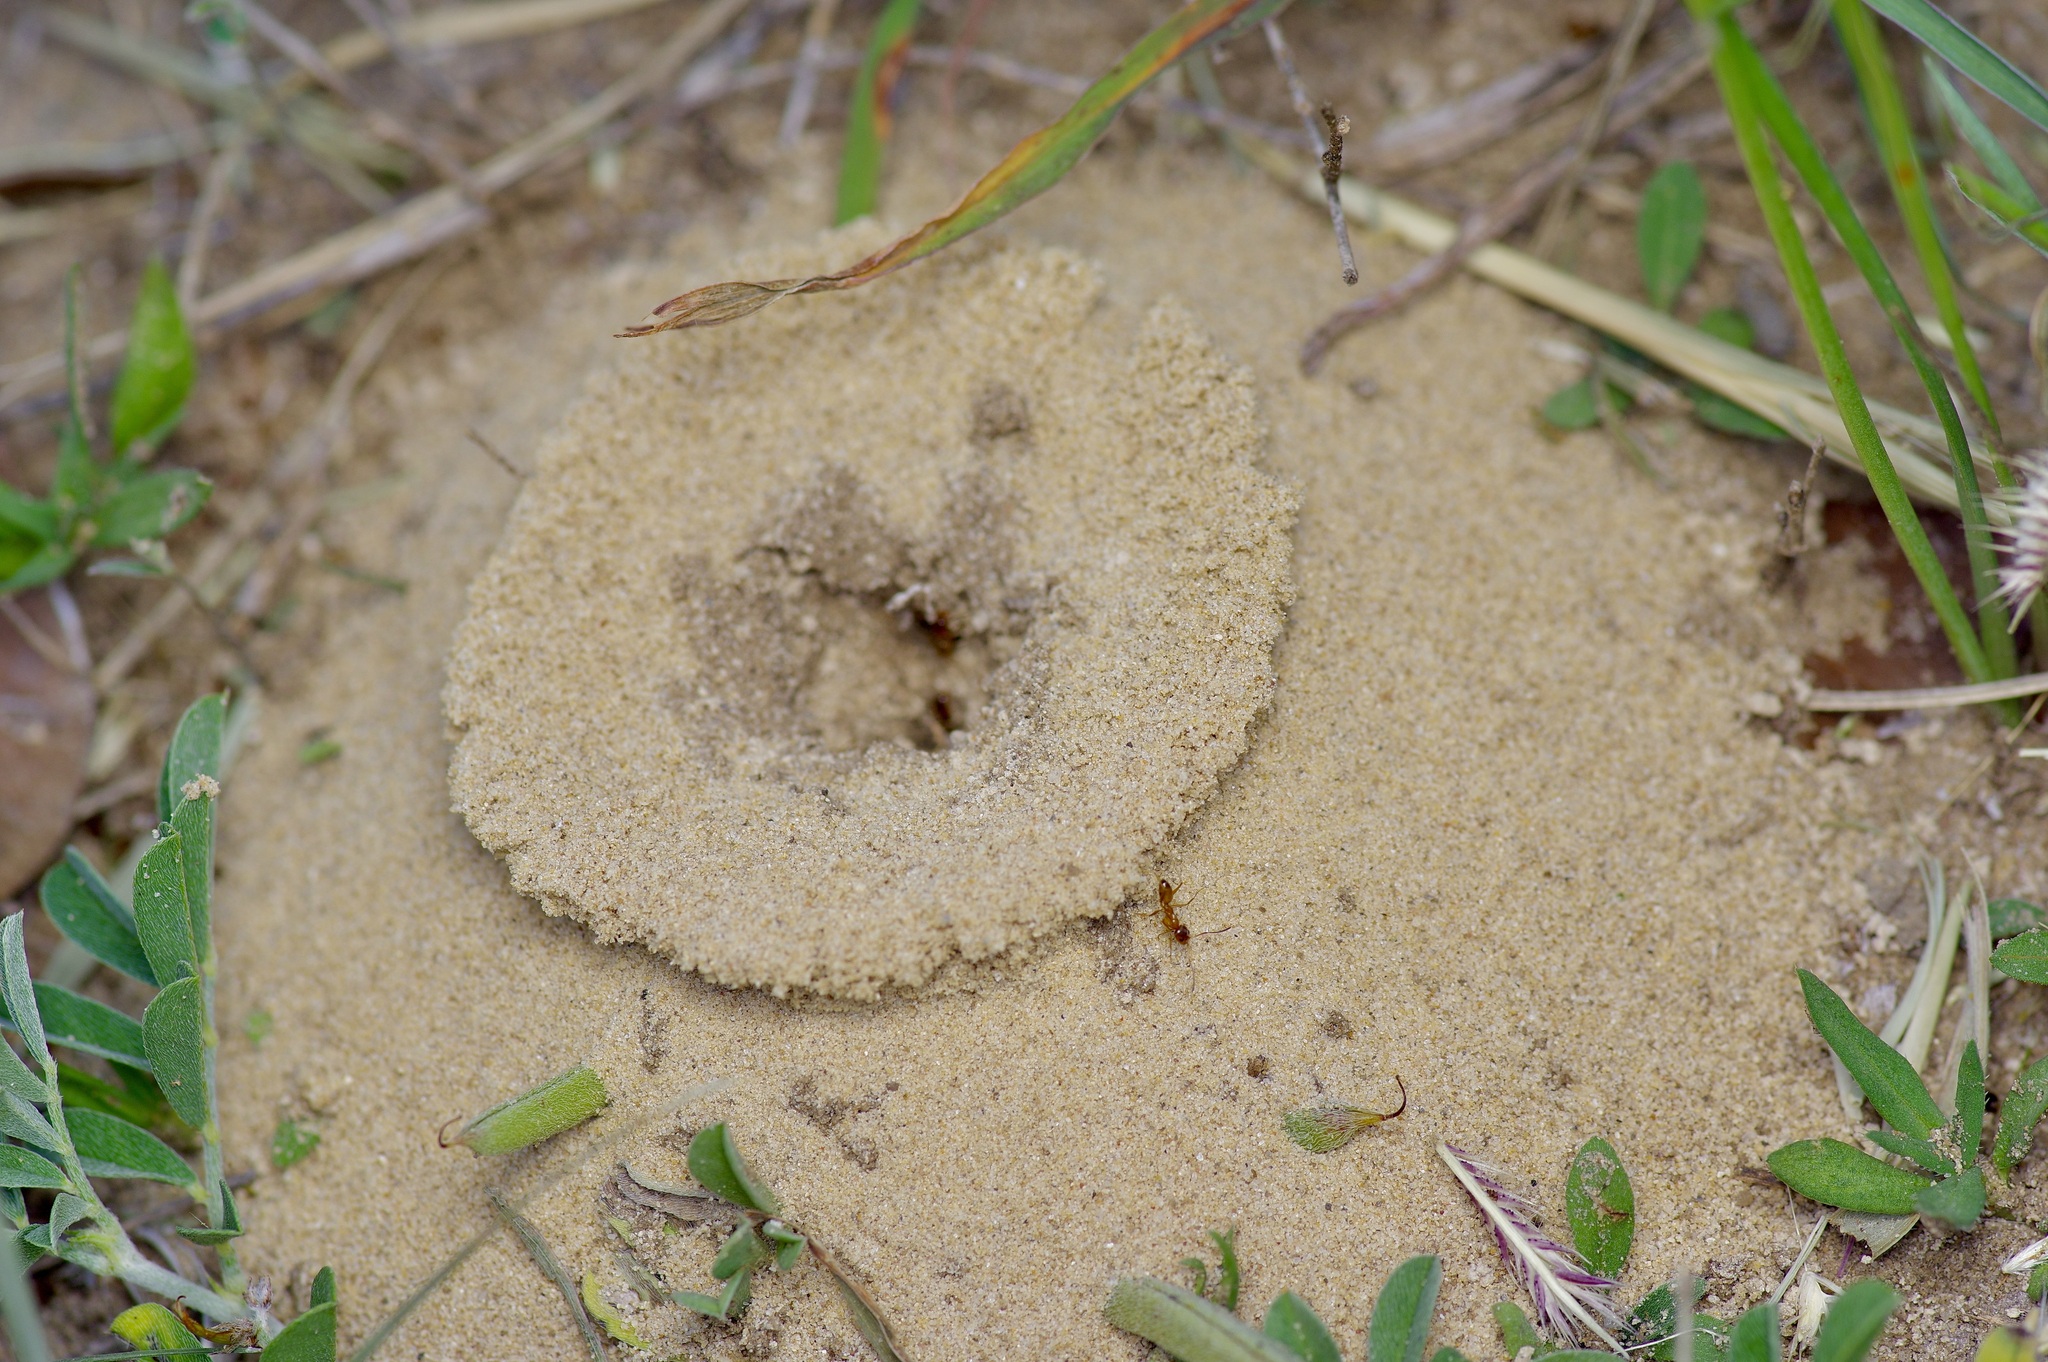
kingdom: Animalia
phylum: Arthropoda
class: Insecta
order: Hymenoptera
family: Formicidae
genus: Dorymyrmex
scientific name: Dorymyrmex flavus
